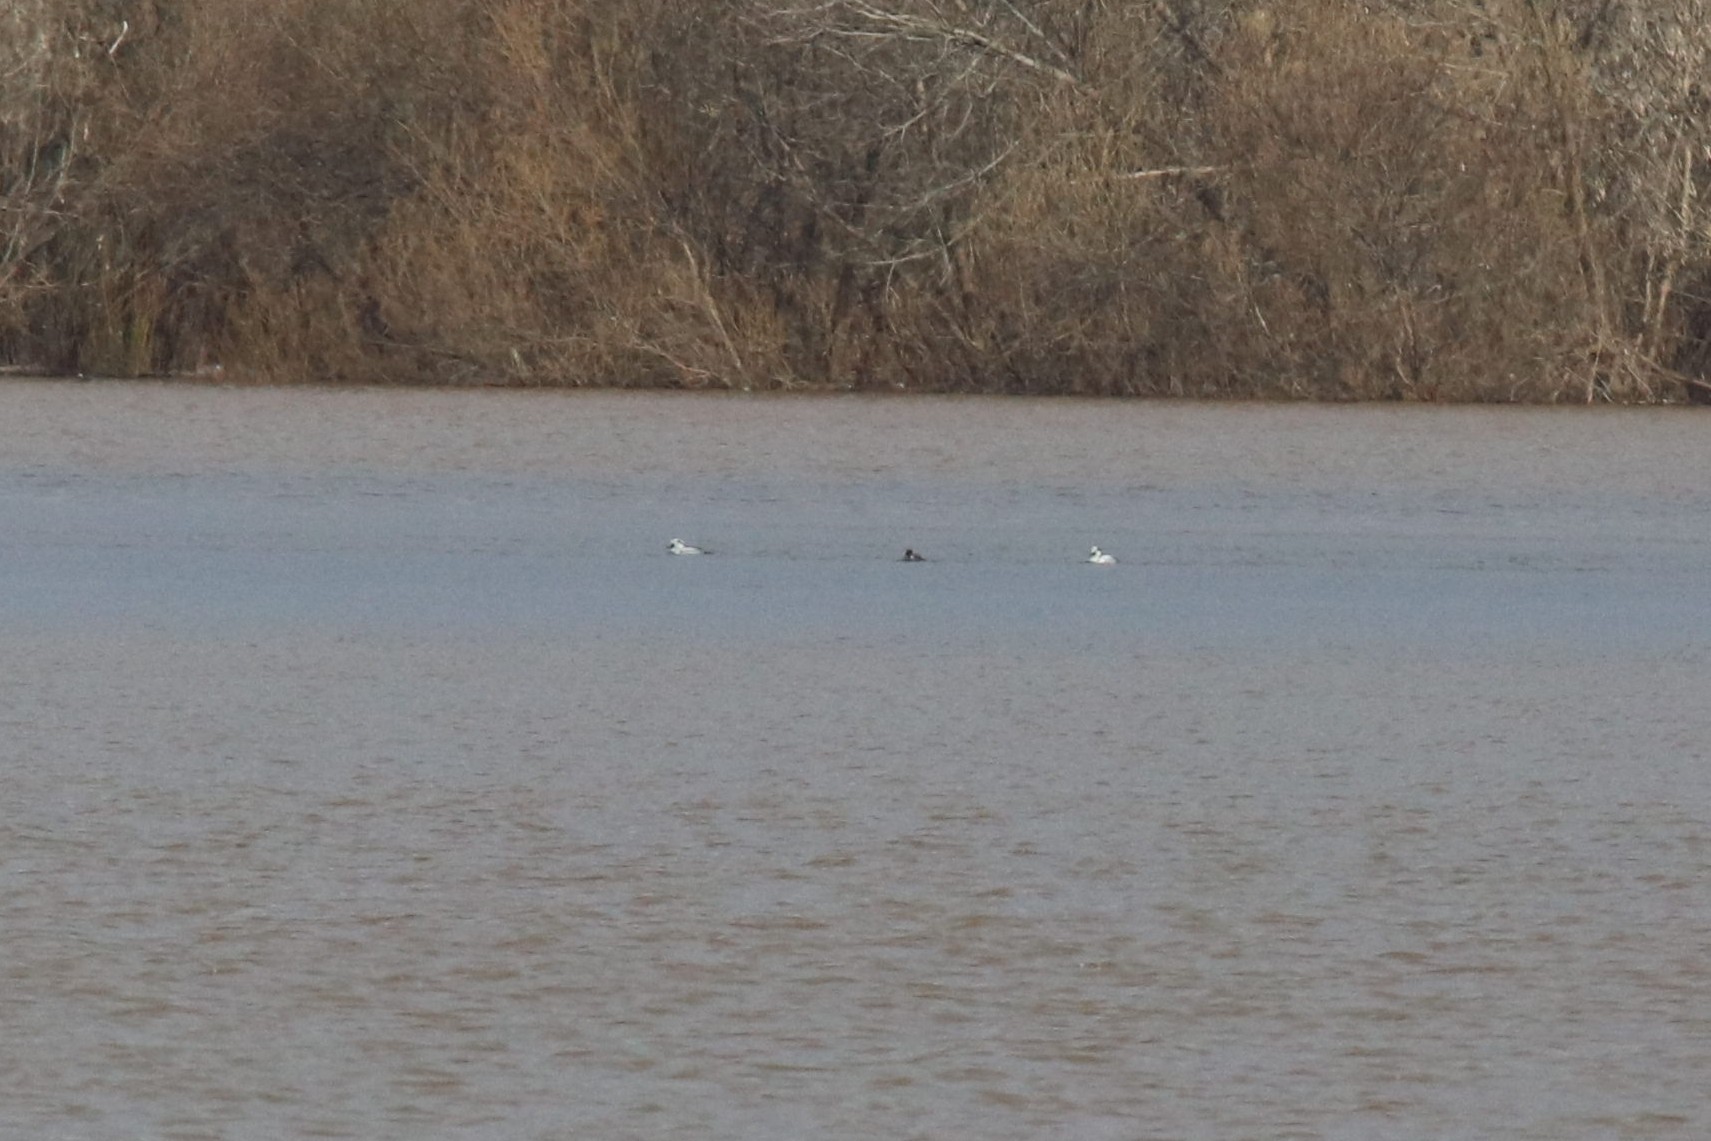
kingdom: Animalia
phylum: Chordata
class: Aves
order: Anseriformes
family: Anatidae
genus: Mergellus
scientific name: Mergellus albellus
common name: Smew
